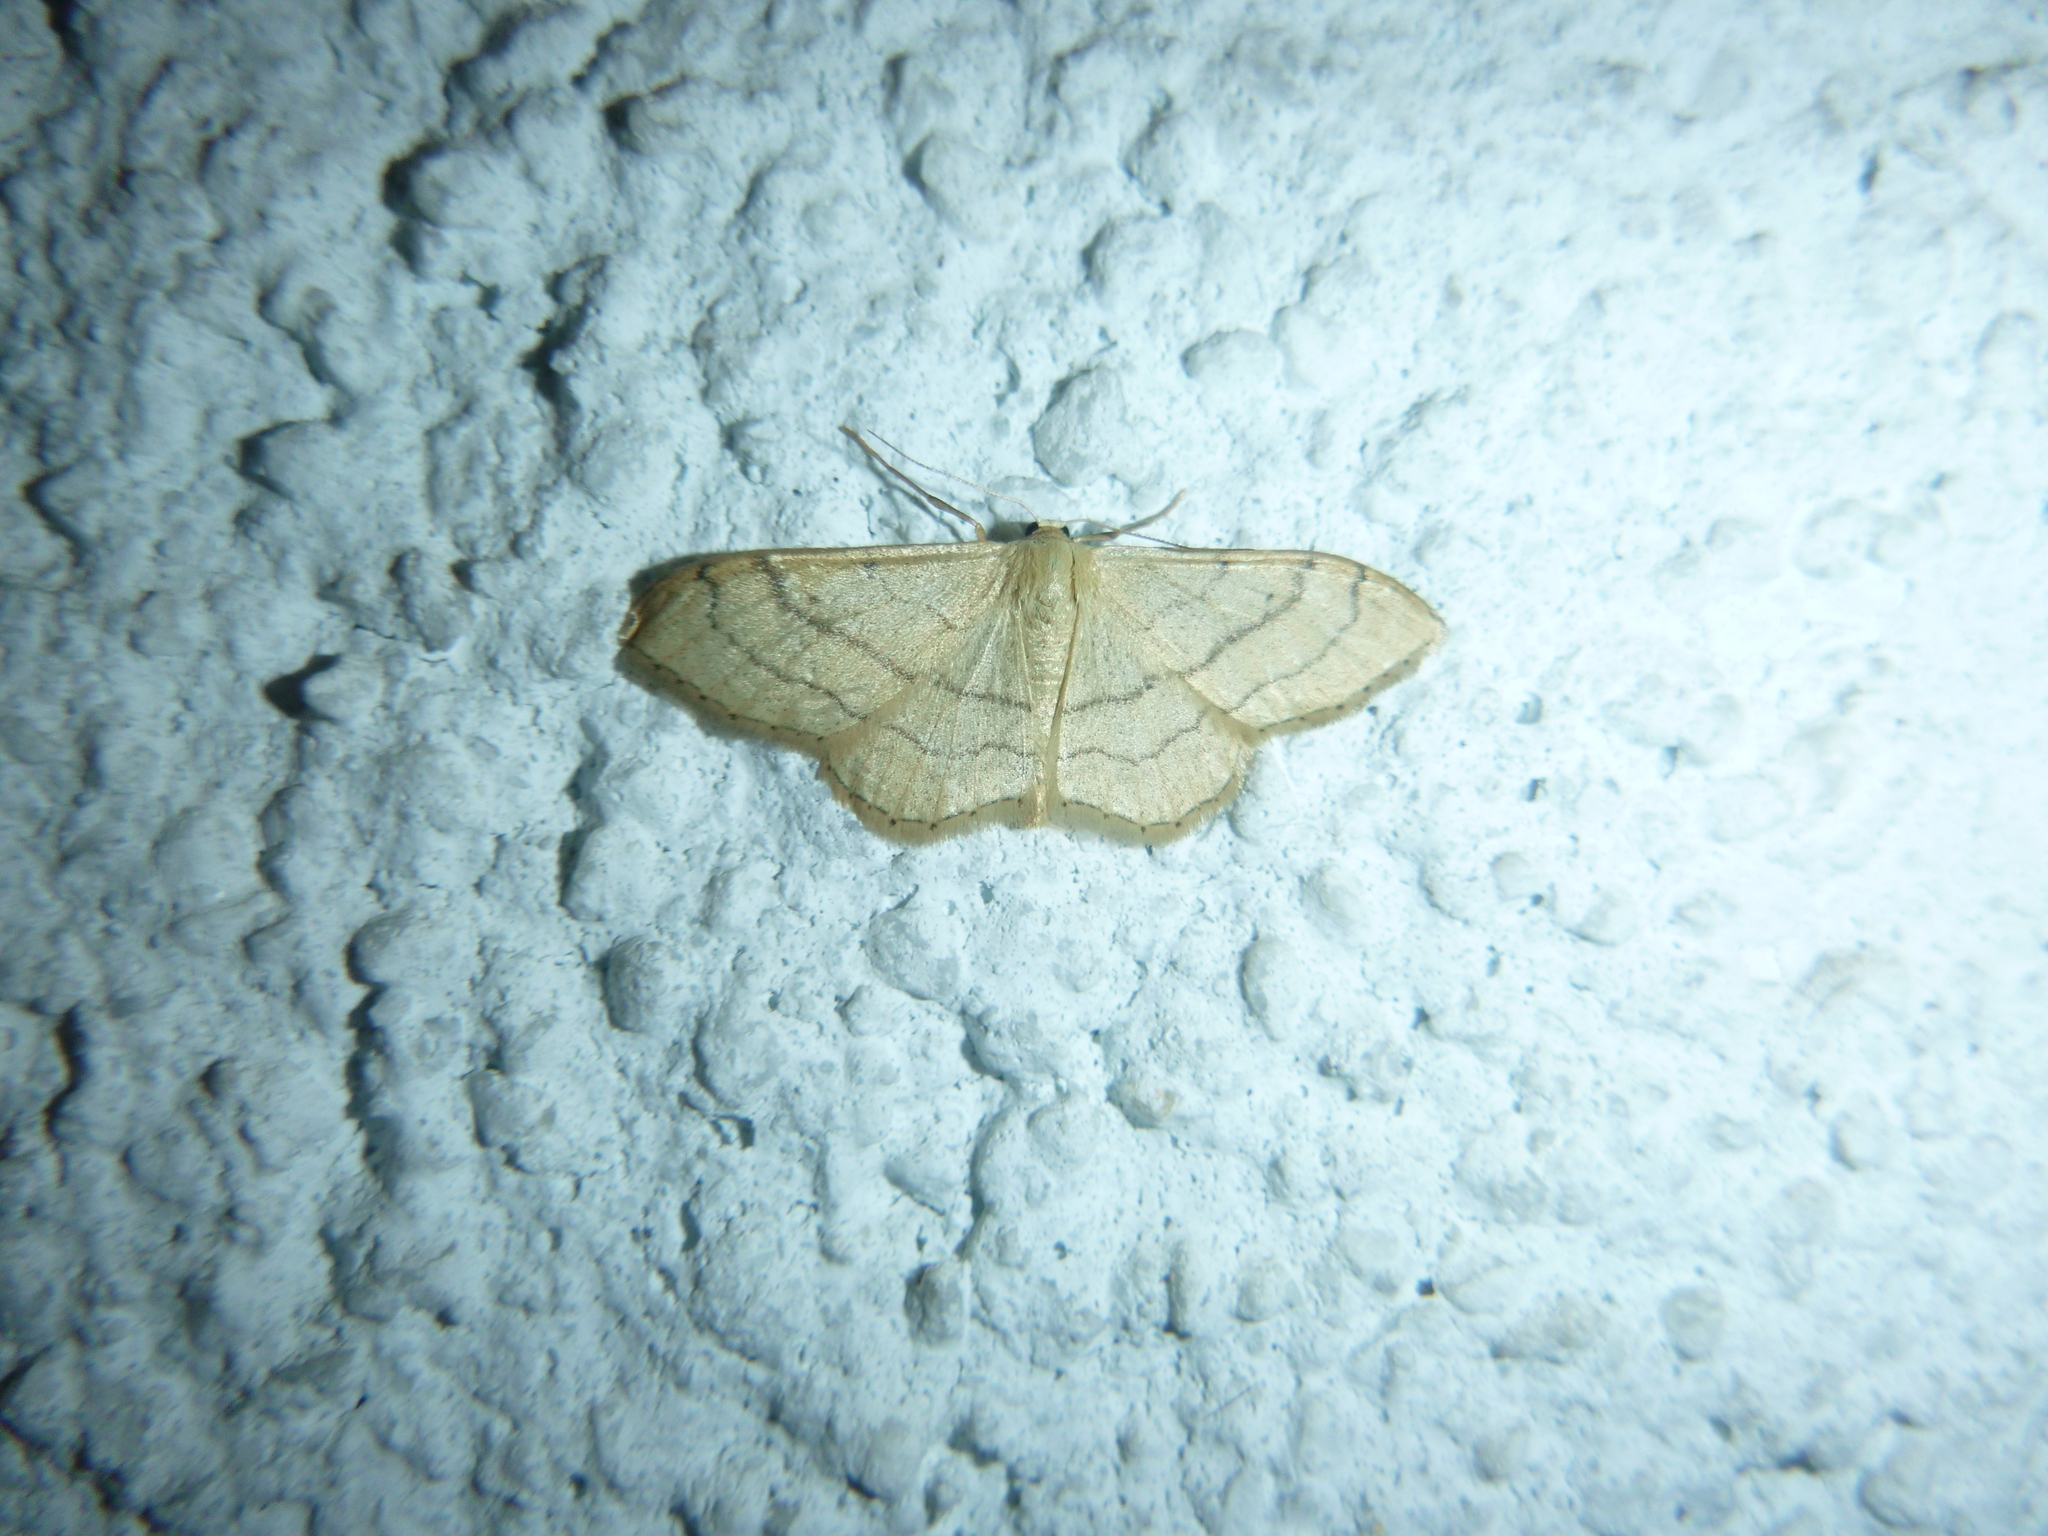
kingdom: Animalia
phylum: Arthropoda
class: Insecta
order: Lepidoptera
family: Geometridae
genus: Idaea
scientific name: Idaea aversata
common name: Riband wave
